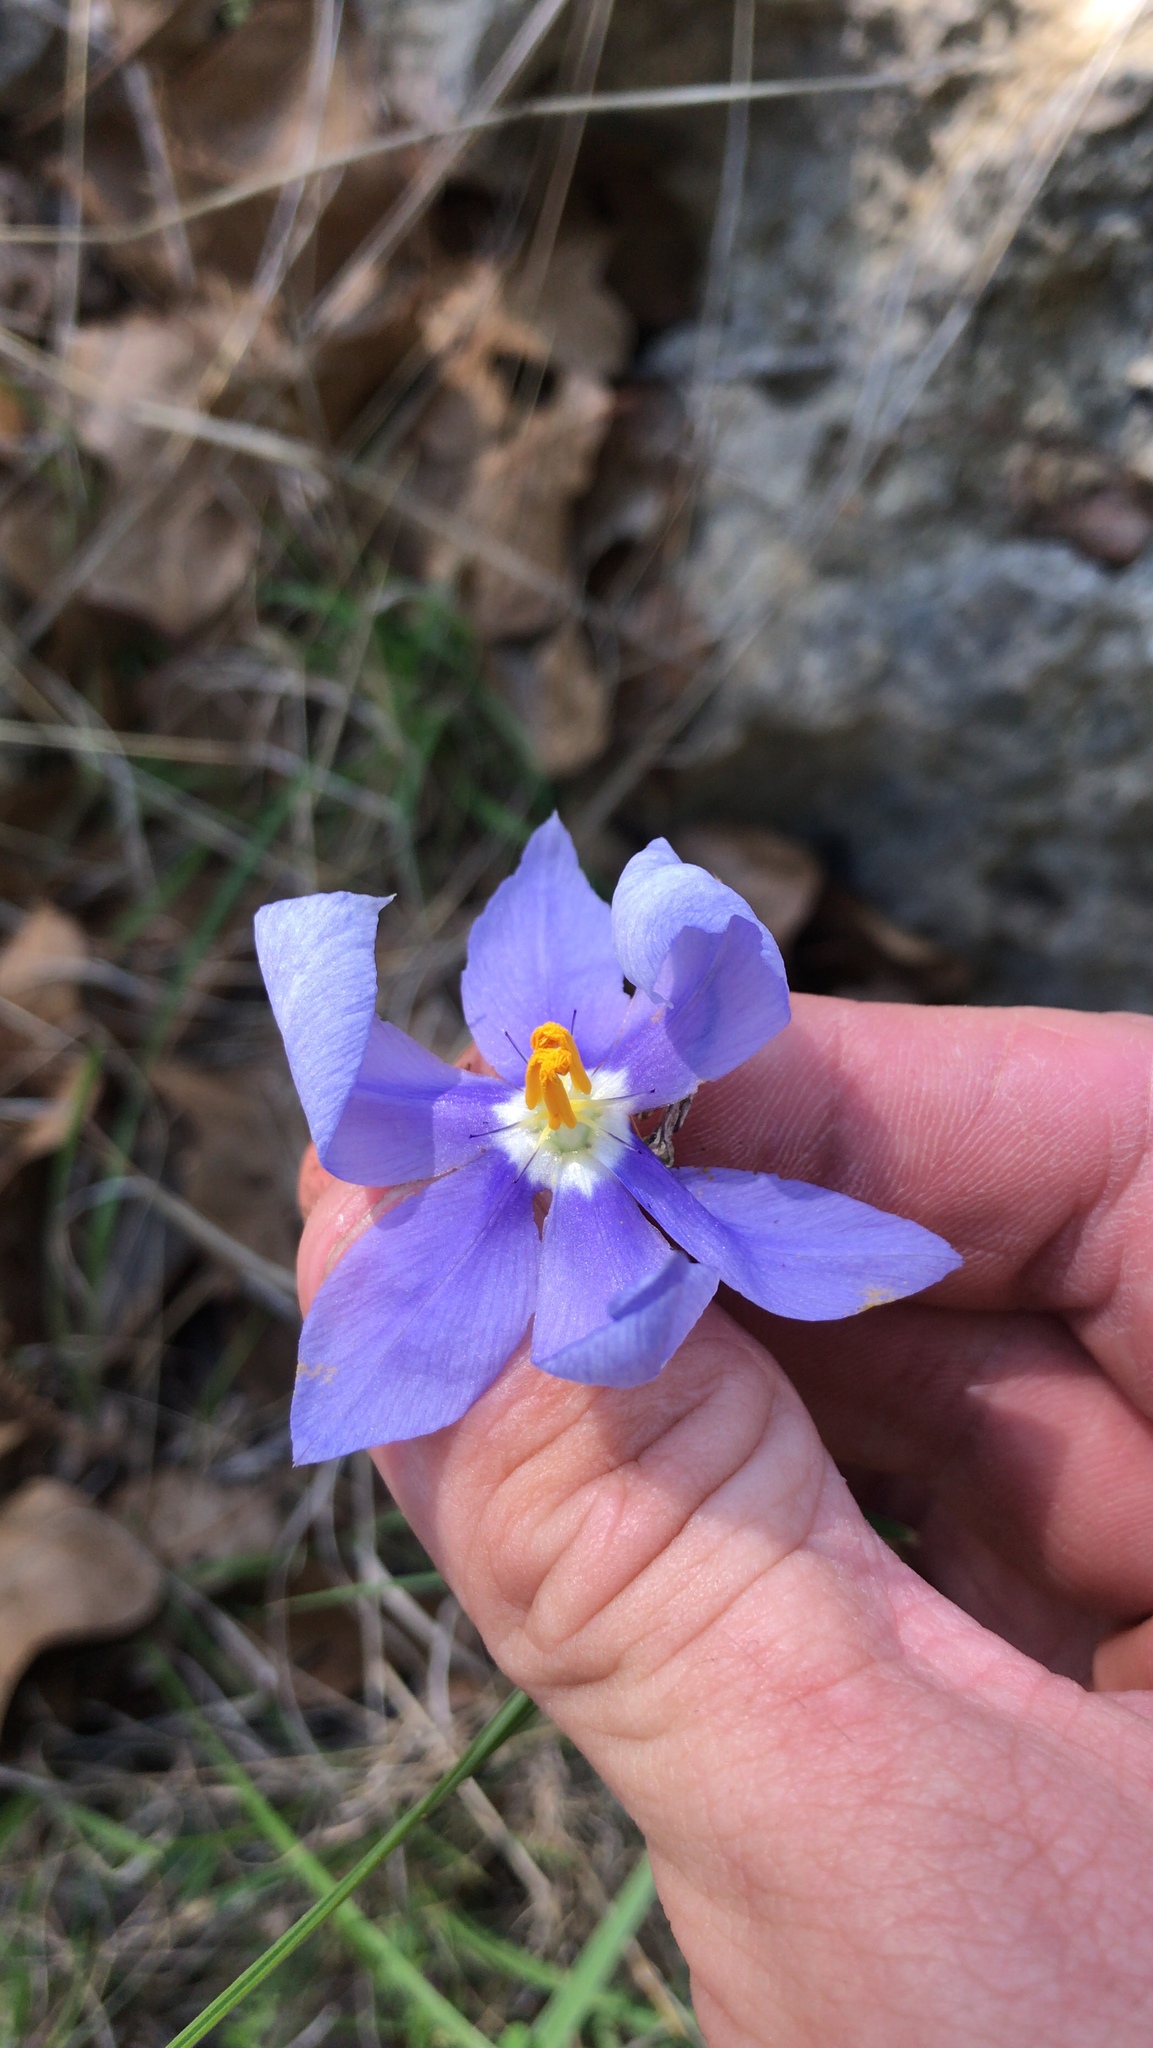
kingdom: Plantae
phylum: Tracheophyta
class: Liliopsida
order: Asparagales
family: Iridaceae
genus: Nemastylis
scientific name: Nemastylis geminiflora
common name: Prairie celestial
